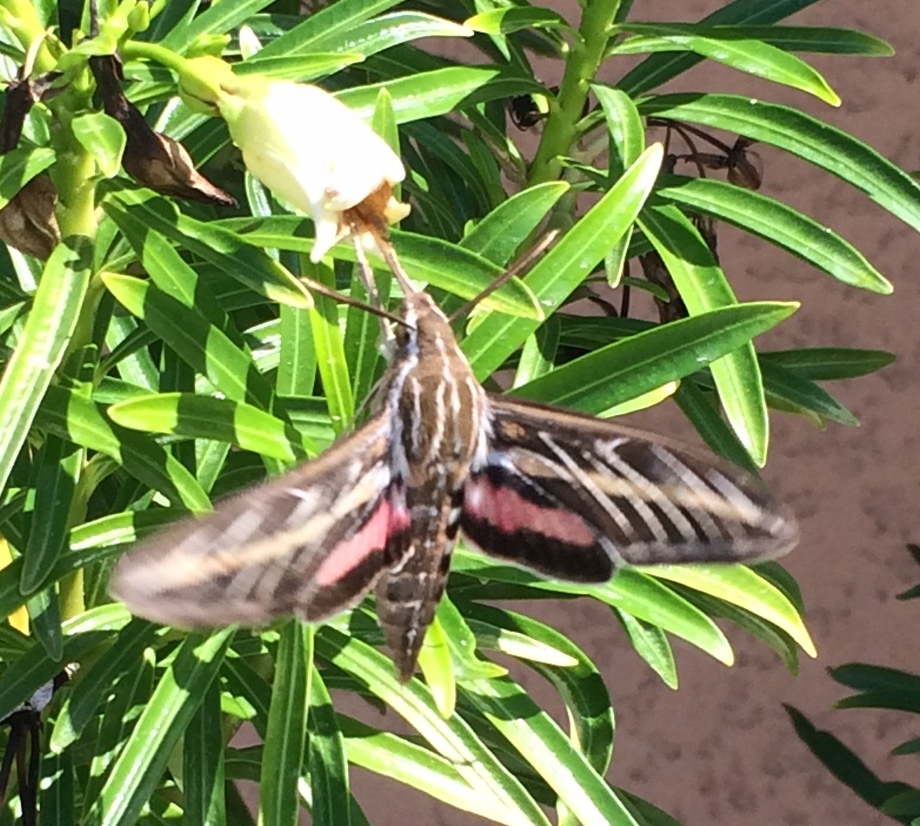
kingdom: Animalia
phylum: Arthropoda
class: Insecta
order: Lepidoptera
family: Sphingidae
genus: Hyles
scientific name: Hyles lineata
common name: White-lined sphinx
